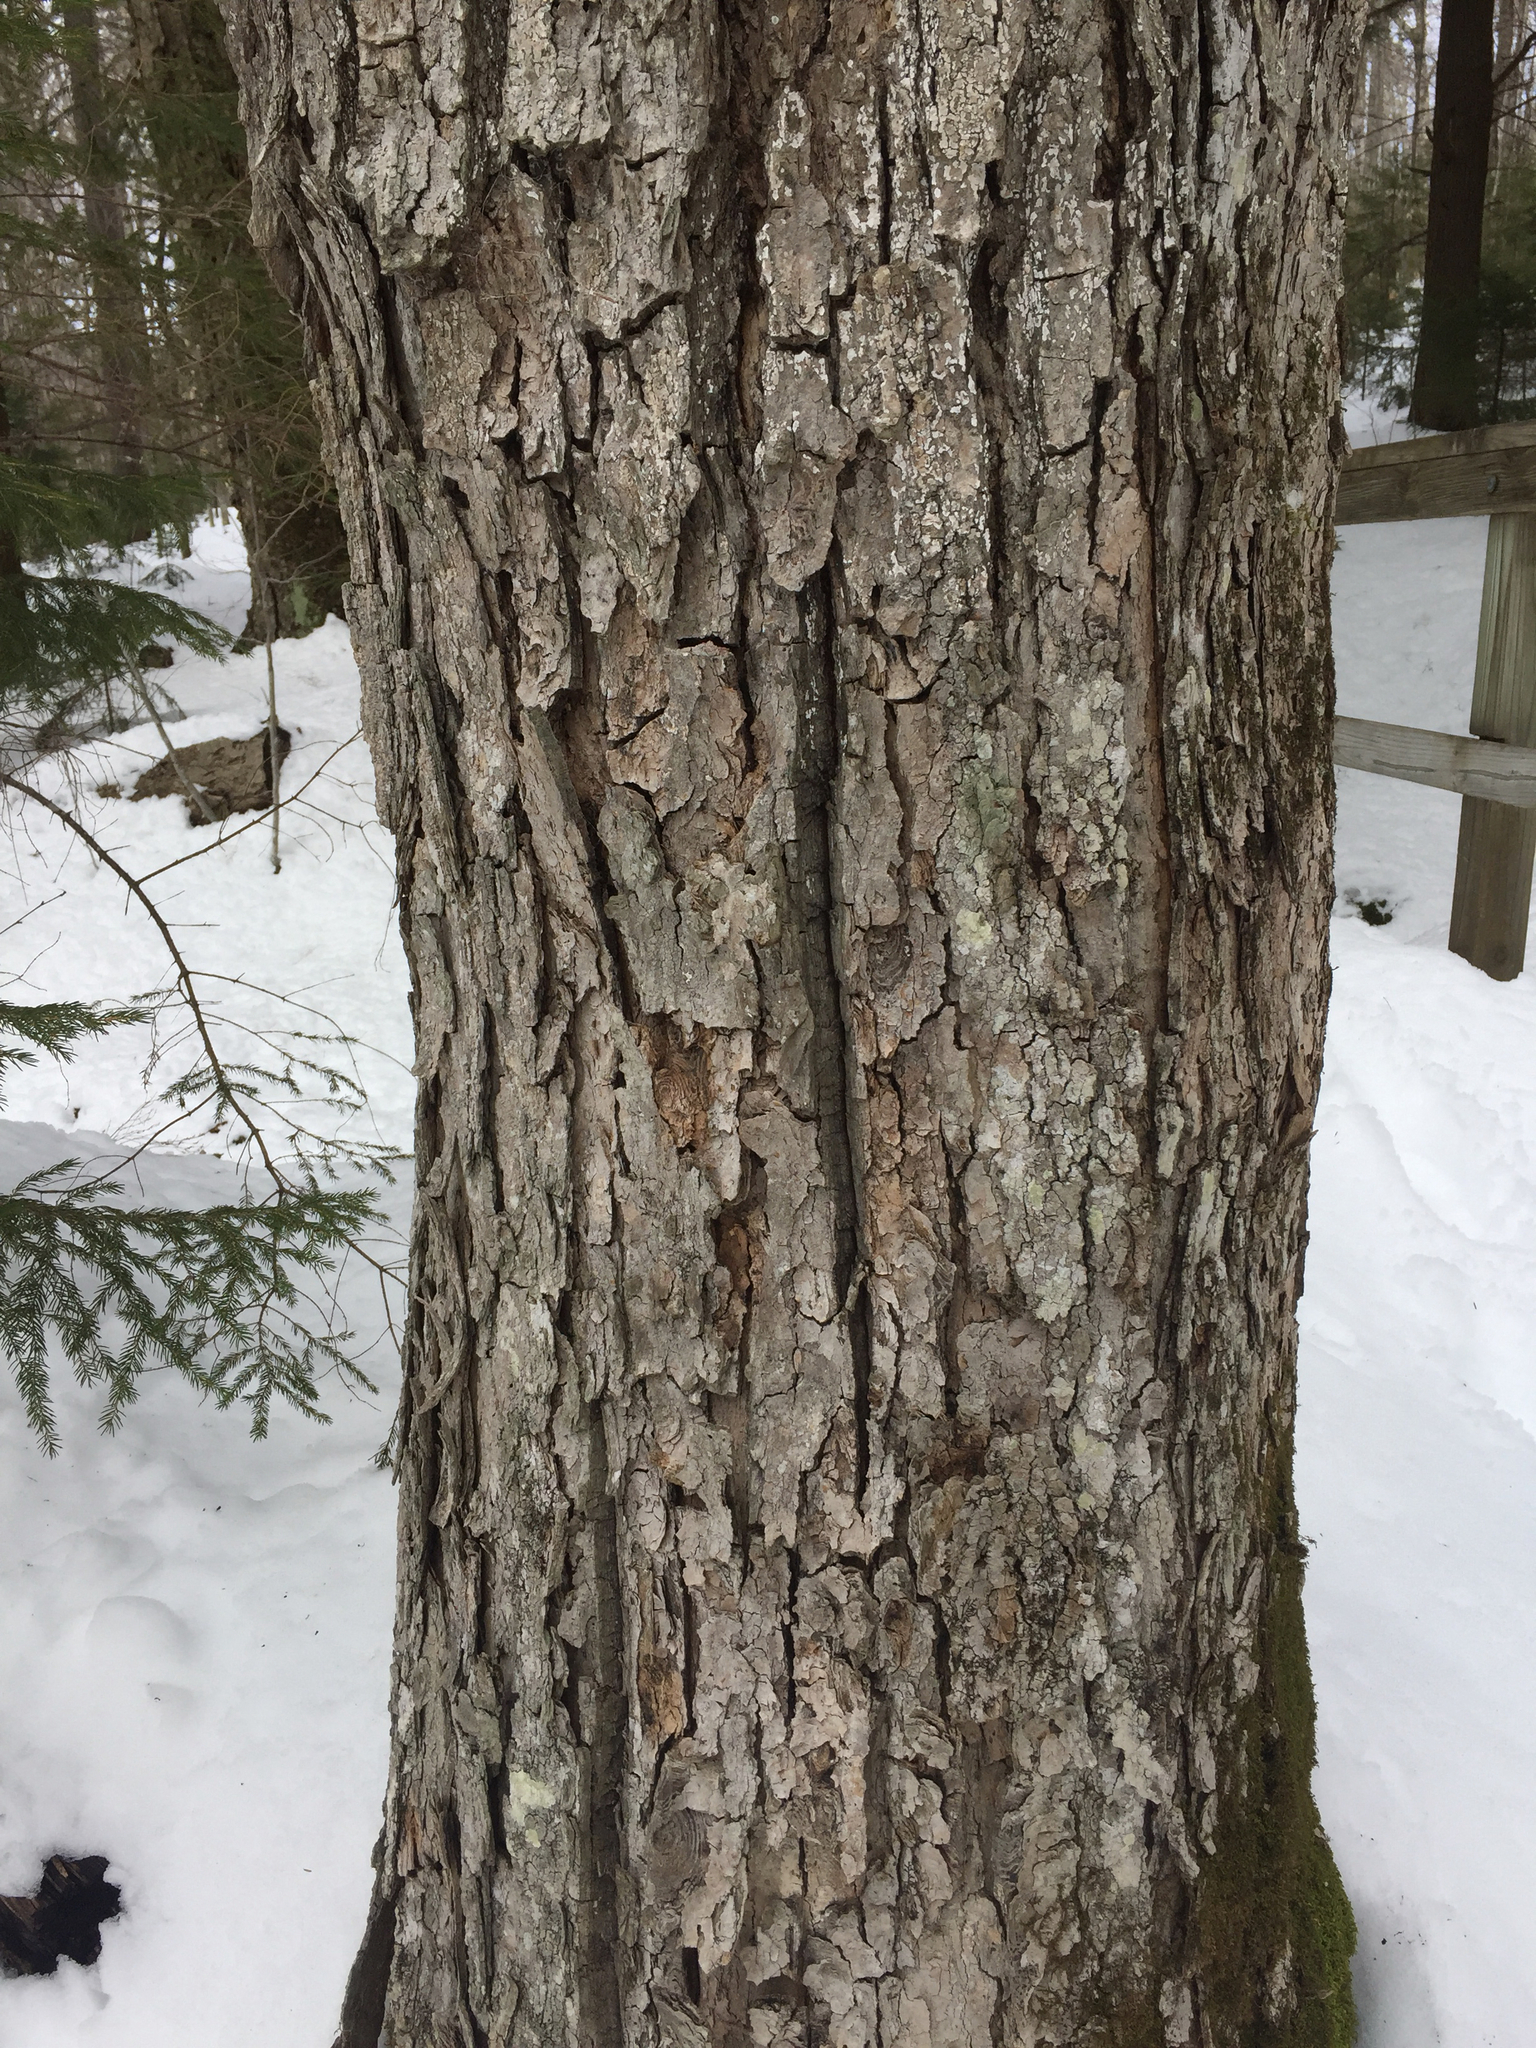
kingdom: Plantae
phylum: Tracheophyta
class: Magnoliopsida
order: Sapindales
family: Sapindaceae
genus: Acer
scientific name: Acer saccharum
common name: Sugar maple
